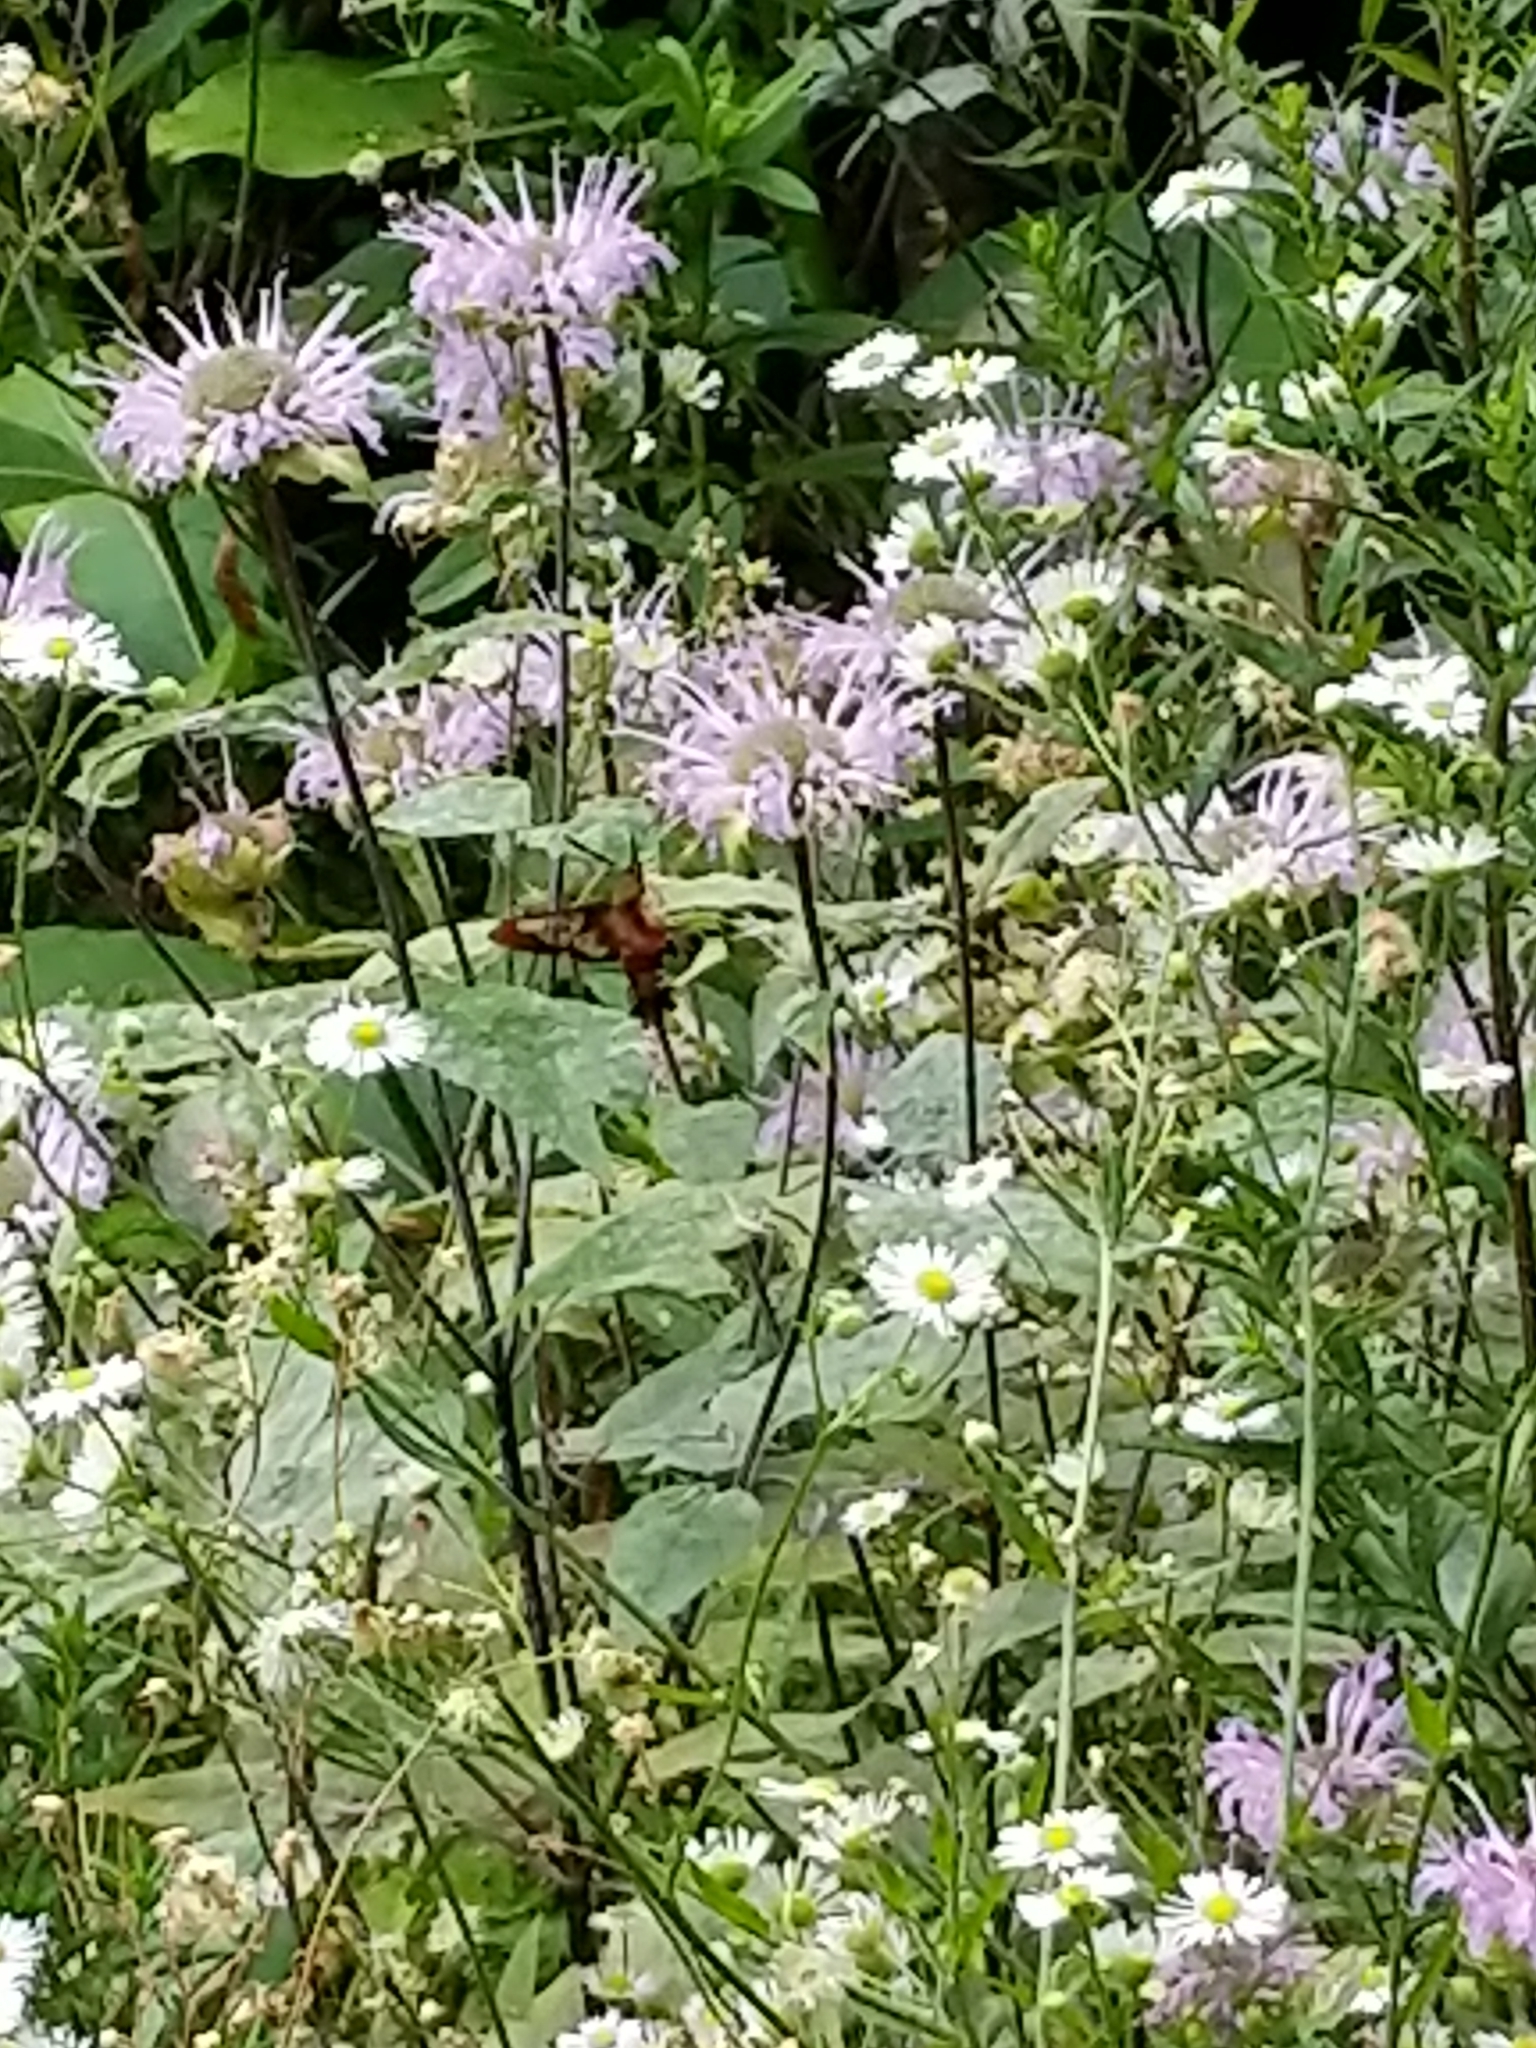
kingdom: Animalia
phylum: Arthropoda
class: Insecta
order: Lepidoptera
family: Sphingidae
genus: Hemaris
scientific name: Hemaris thysbe
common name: Common clear-wing
